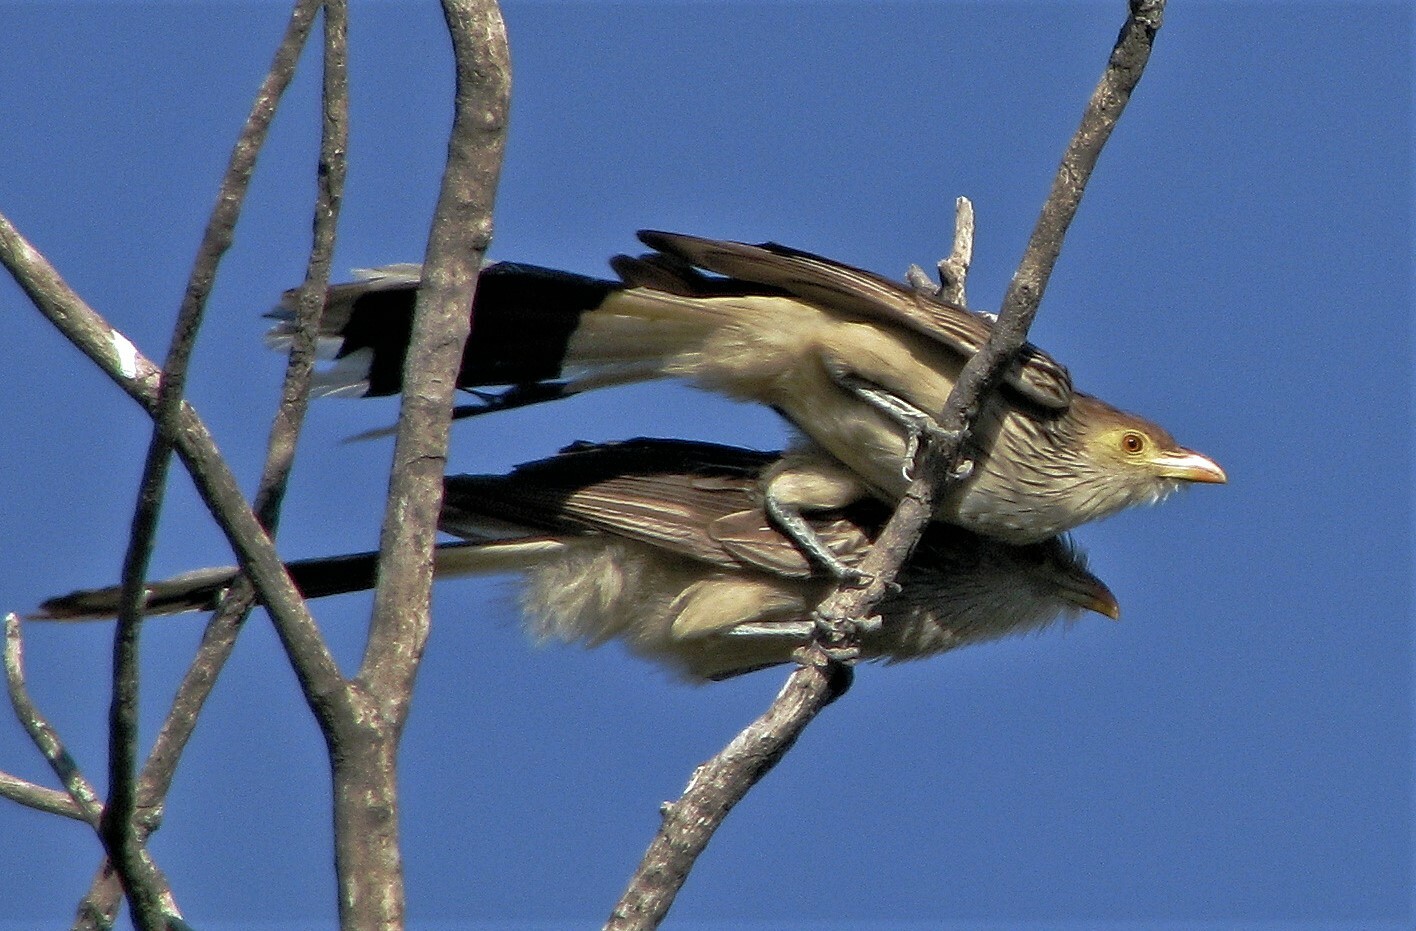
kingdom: Animalia
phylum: Chordata
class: Aves
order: Cuculiformes
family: Cuculidae
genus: Guira
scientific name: Guira guira
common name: Guira cuckoo
